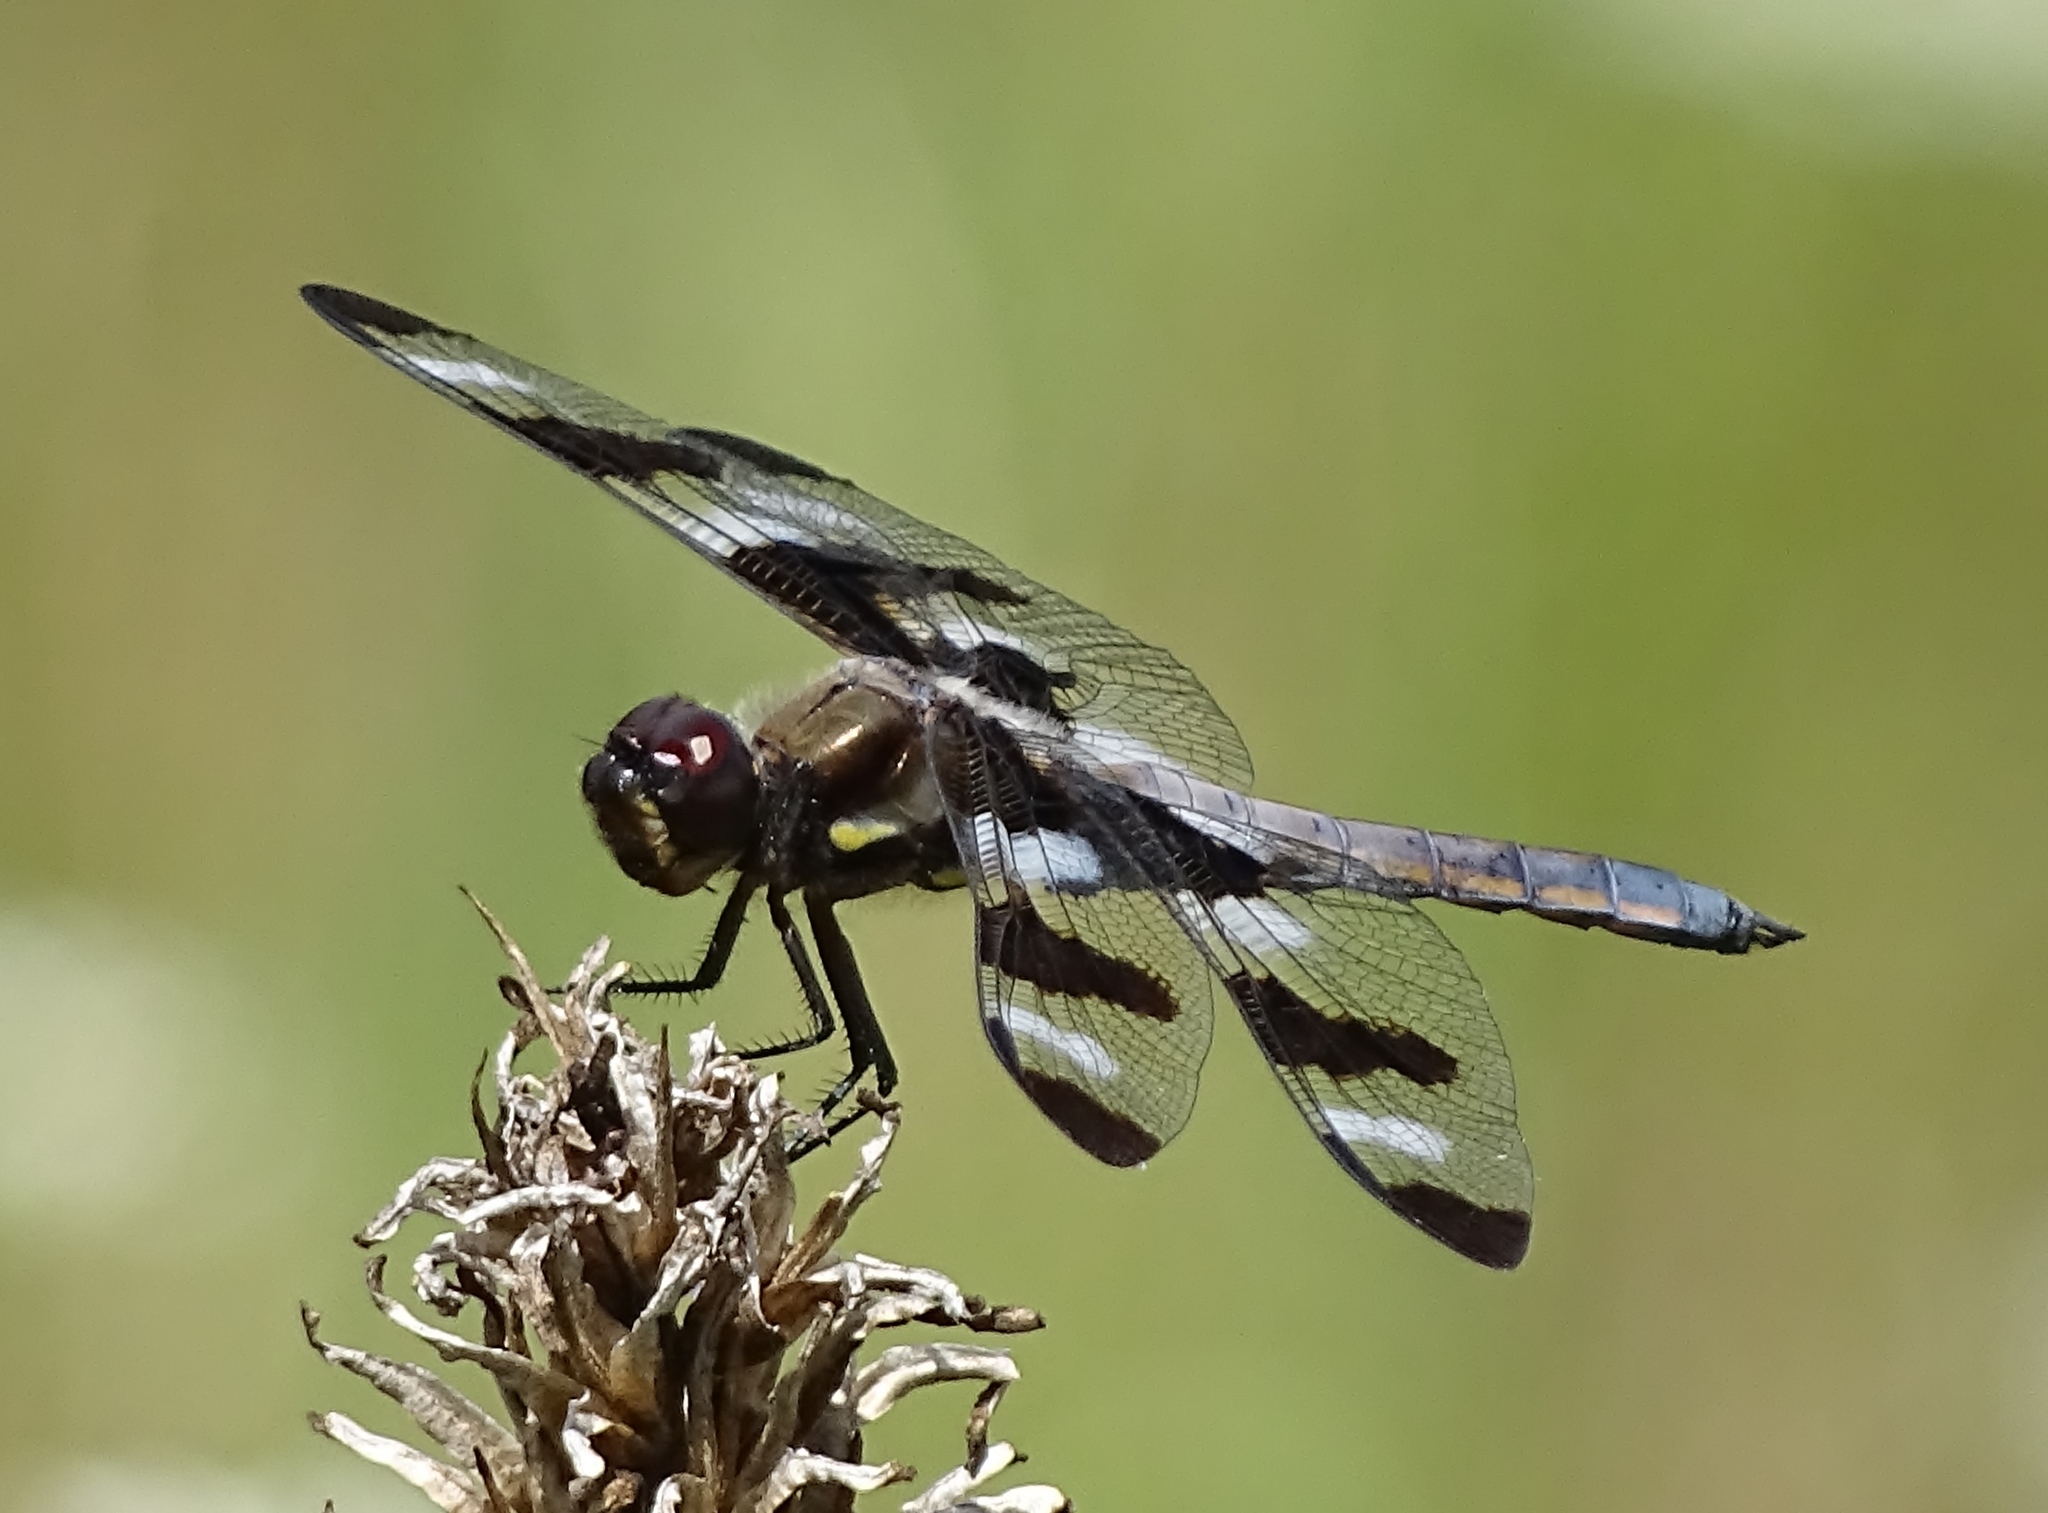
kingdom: Animalia
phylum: Arthropoda
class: Insecta
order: Odonata
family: Libellulidae
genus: Libellula
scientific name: Libellula pulchella
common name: Twelve-spotted skimmer
